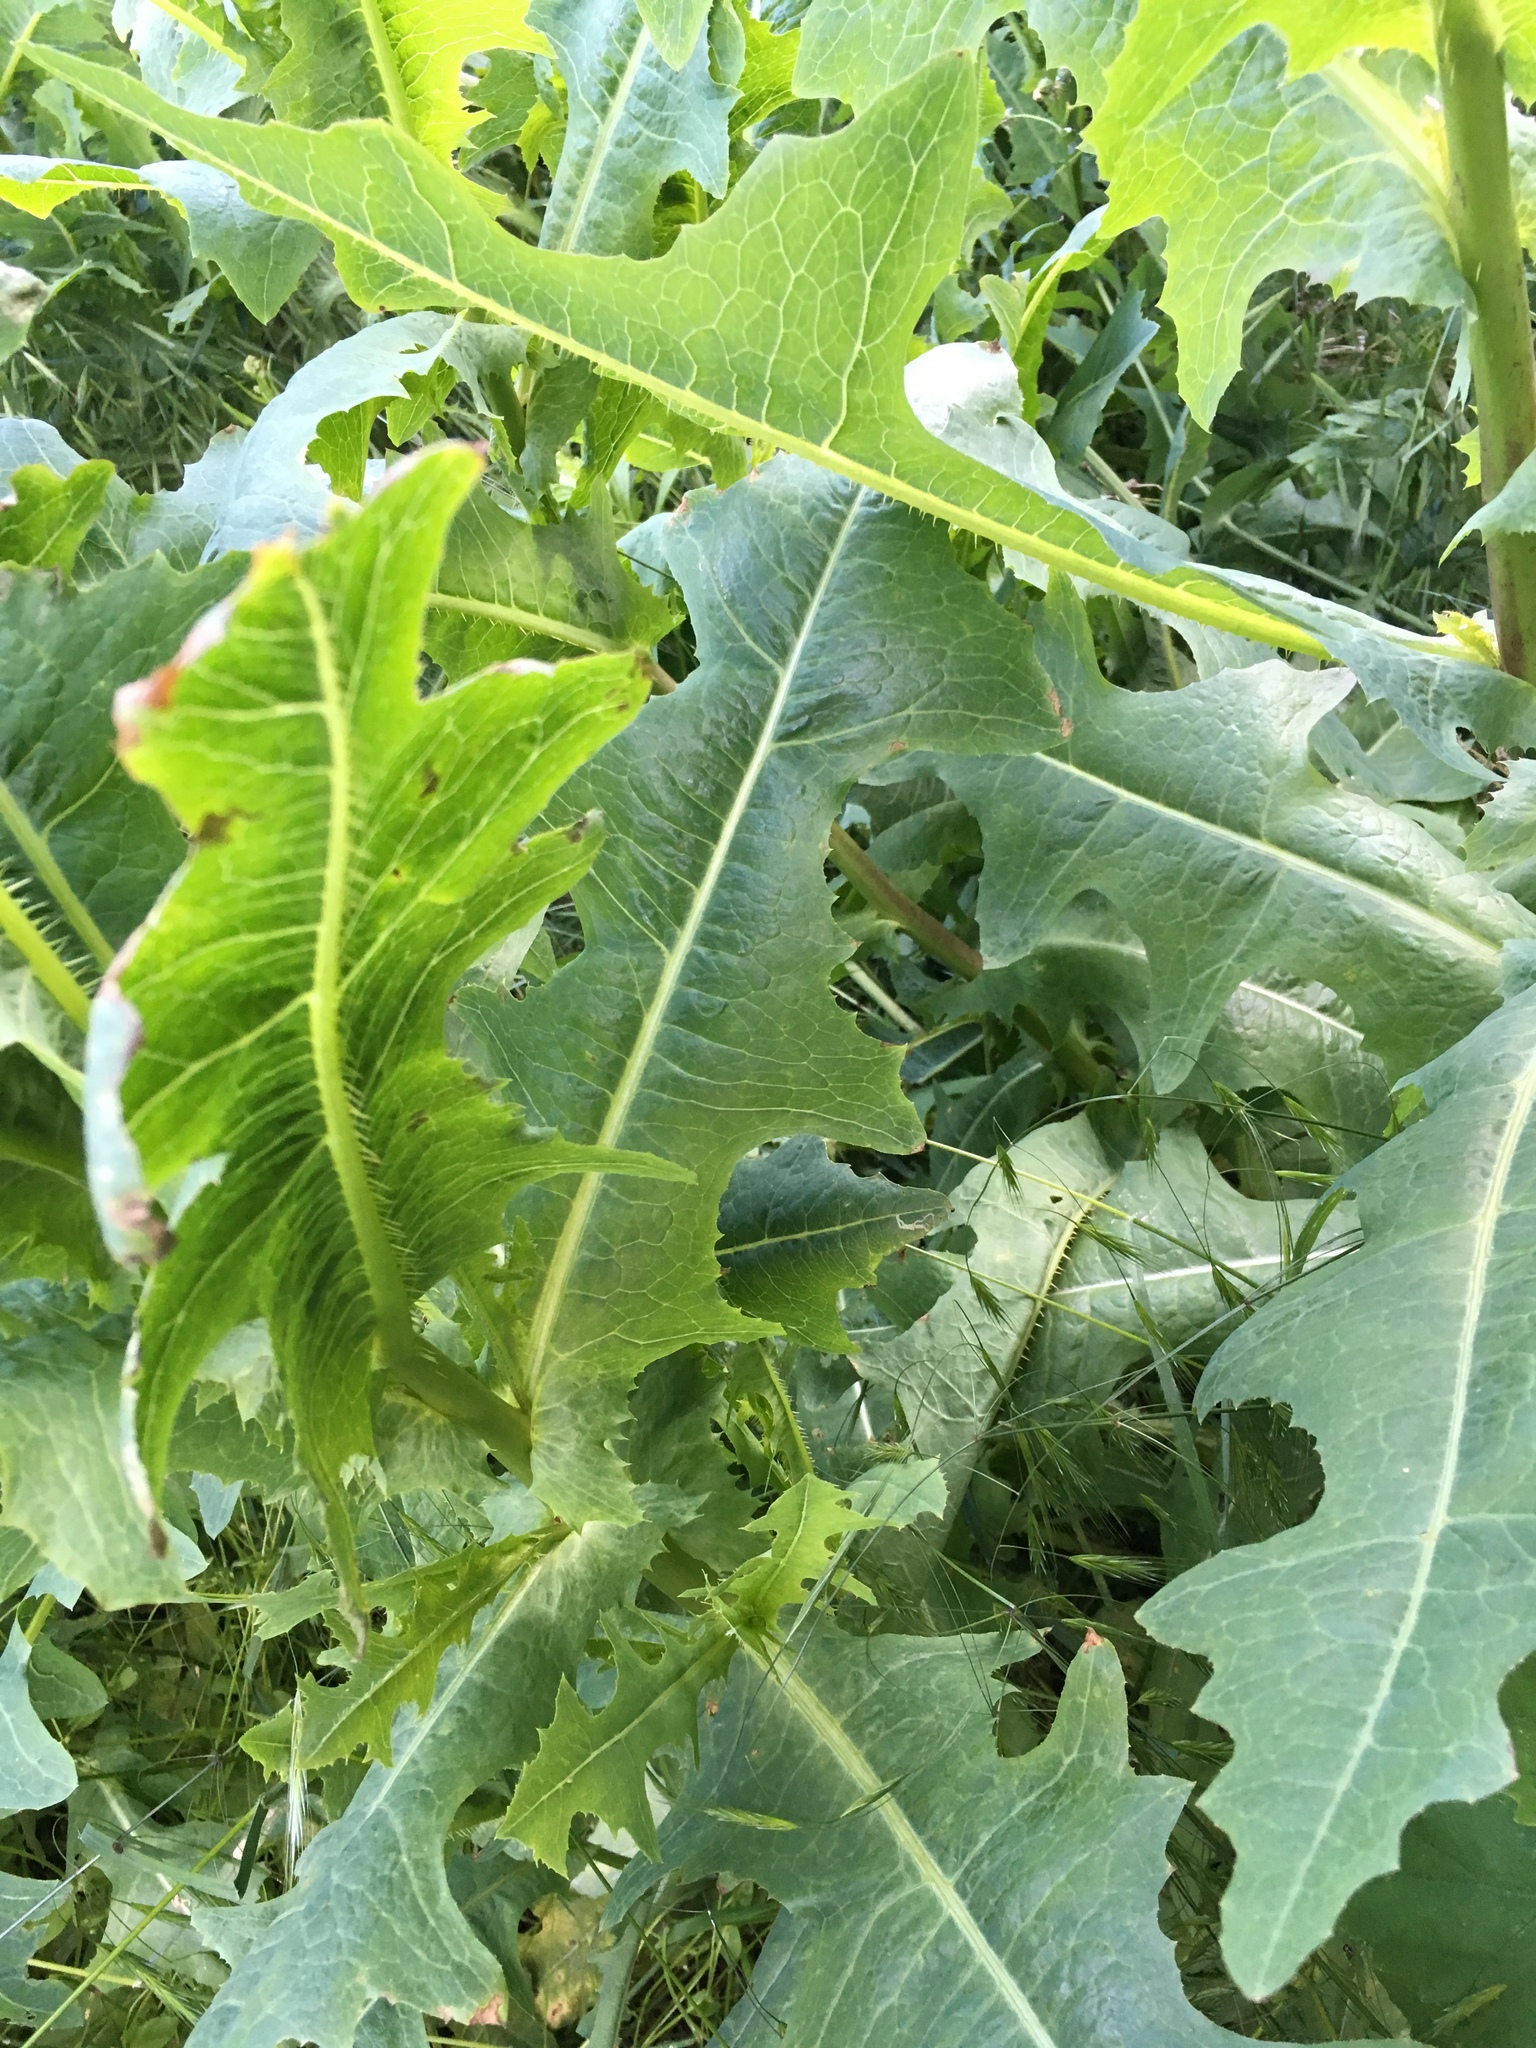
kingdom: Plantae
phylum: Tracheophyta
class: Magnoliopsida
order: Asterales
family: Asteraceae
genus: Lactuca
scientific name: Lactuca serriola
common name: Prickly lettuce
